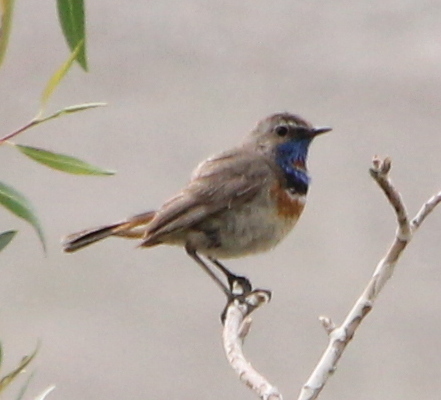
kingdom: Animalia
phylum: Chordata
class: Aves
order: Passeriformes
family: Muscicapidae
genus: Luscinia
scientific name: Luscinia svecica
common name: Bluethroat
